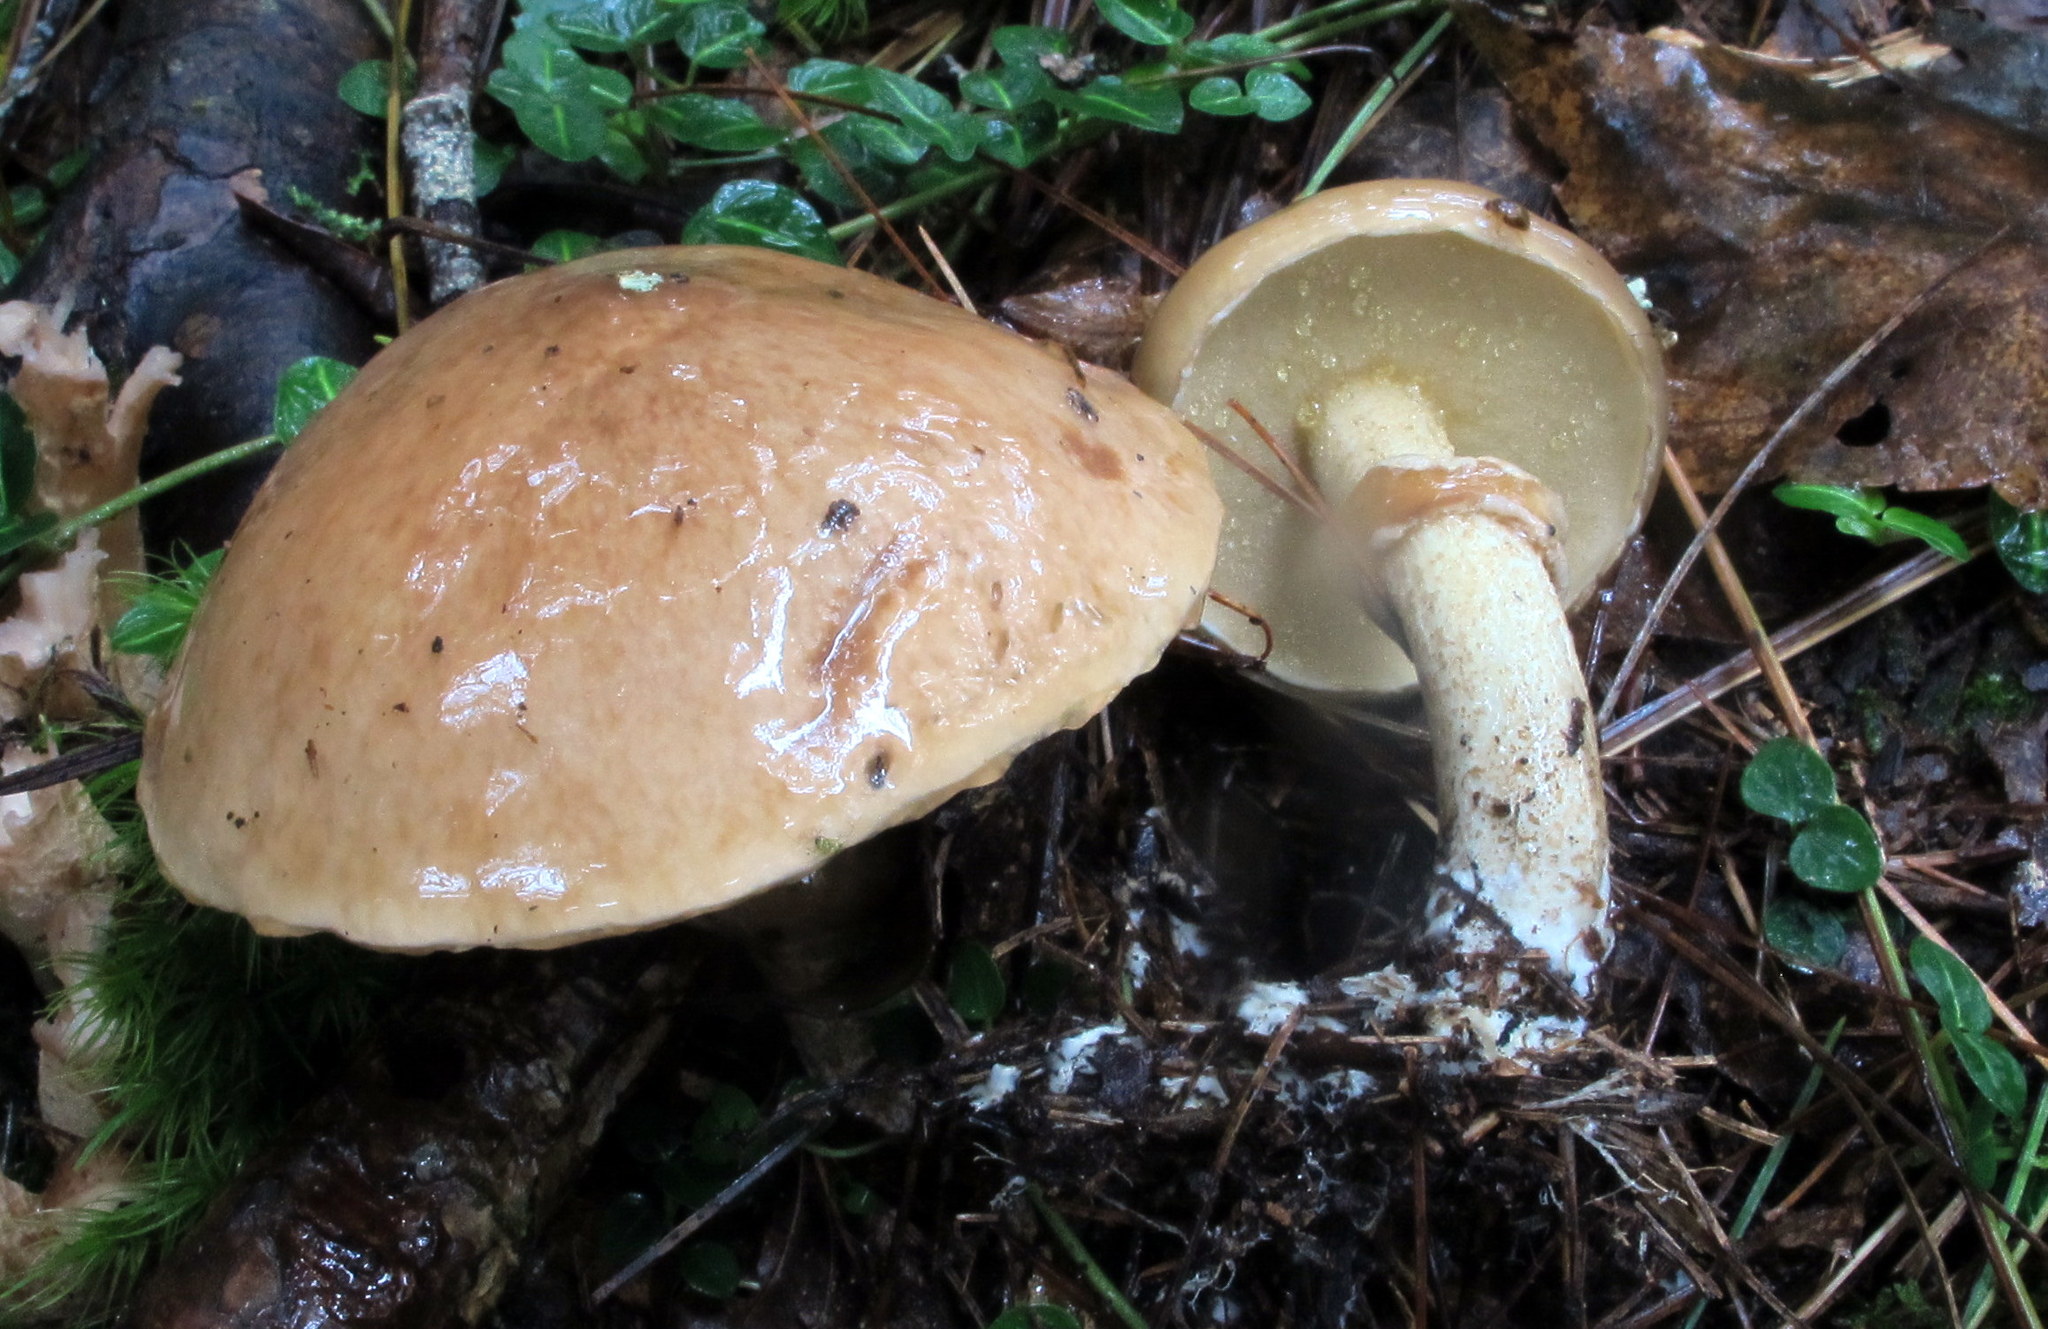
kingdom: Fungi
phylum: Basidiomycota
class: Agaricomycetes
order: Boletales
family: Suillaceae
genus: Suillus
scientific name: Suillus acidus
